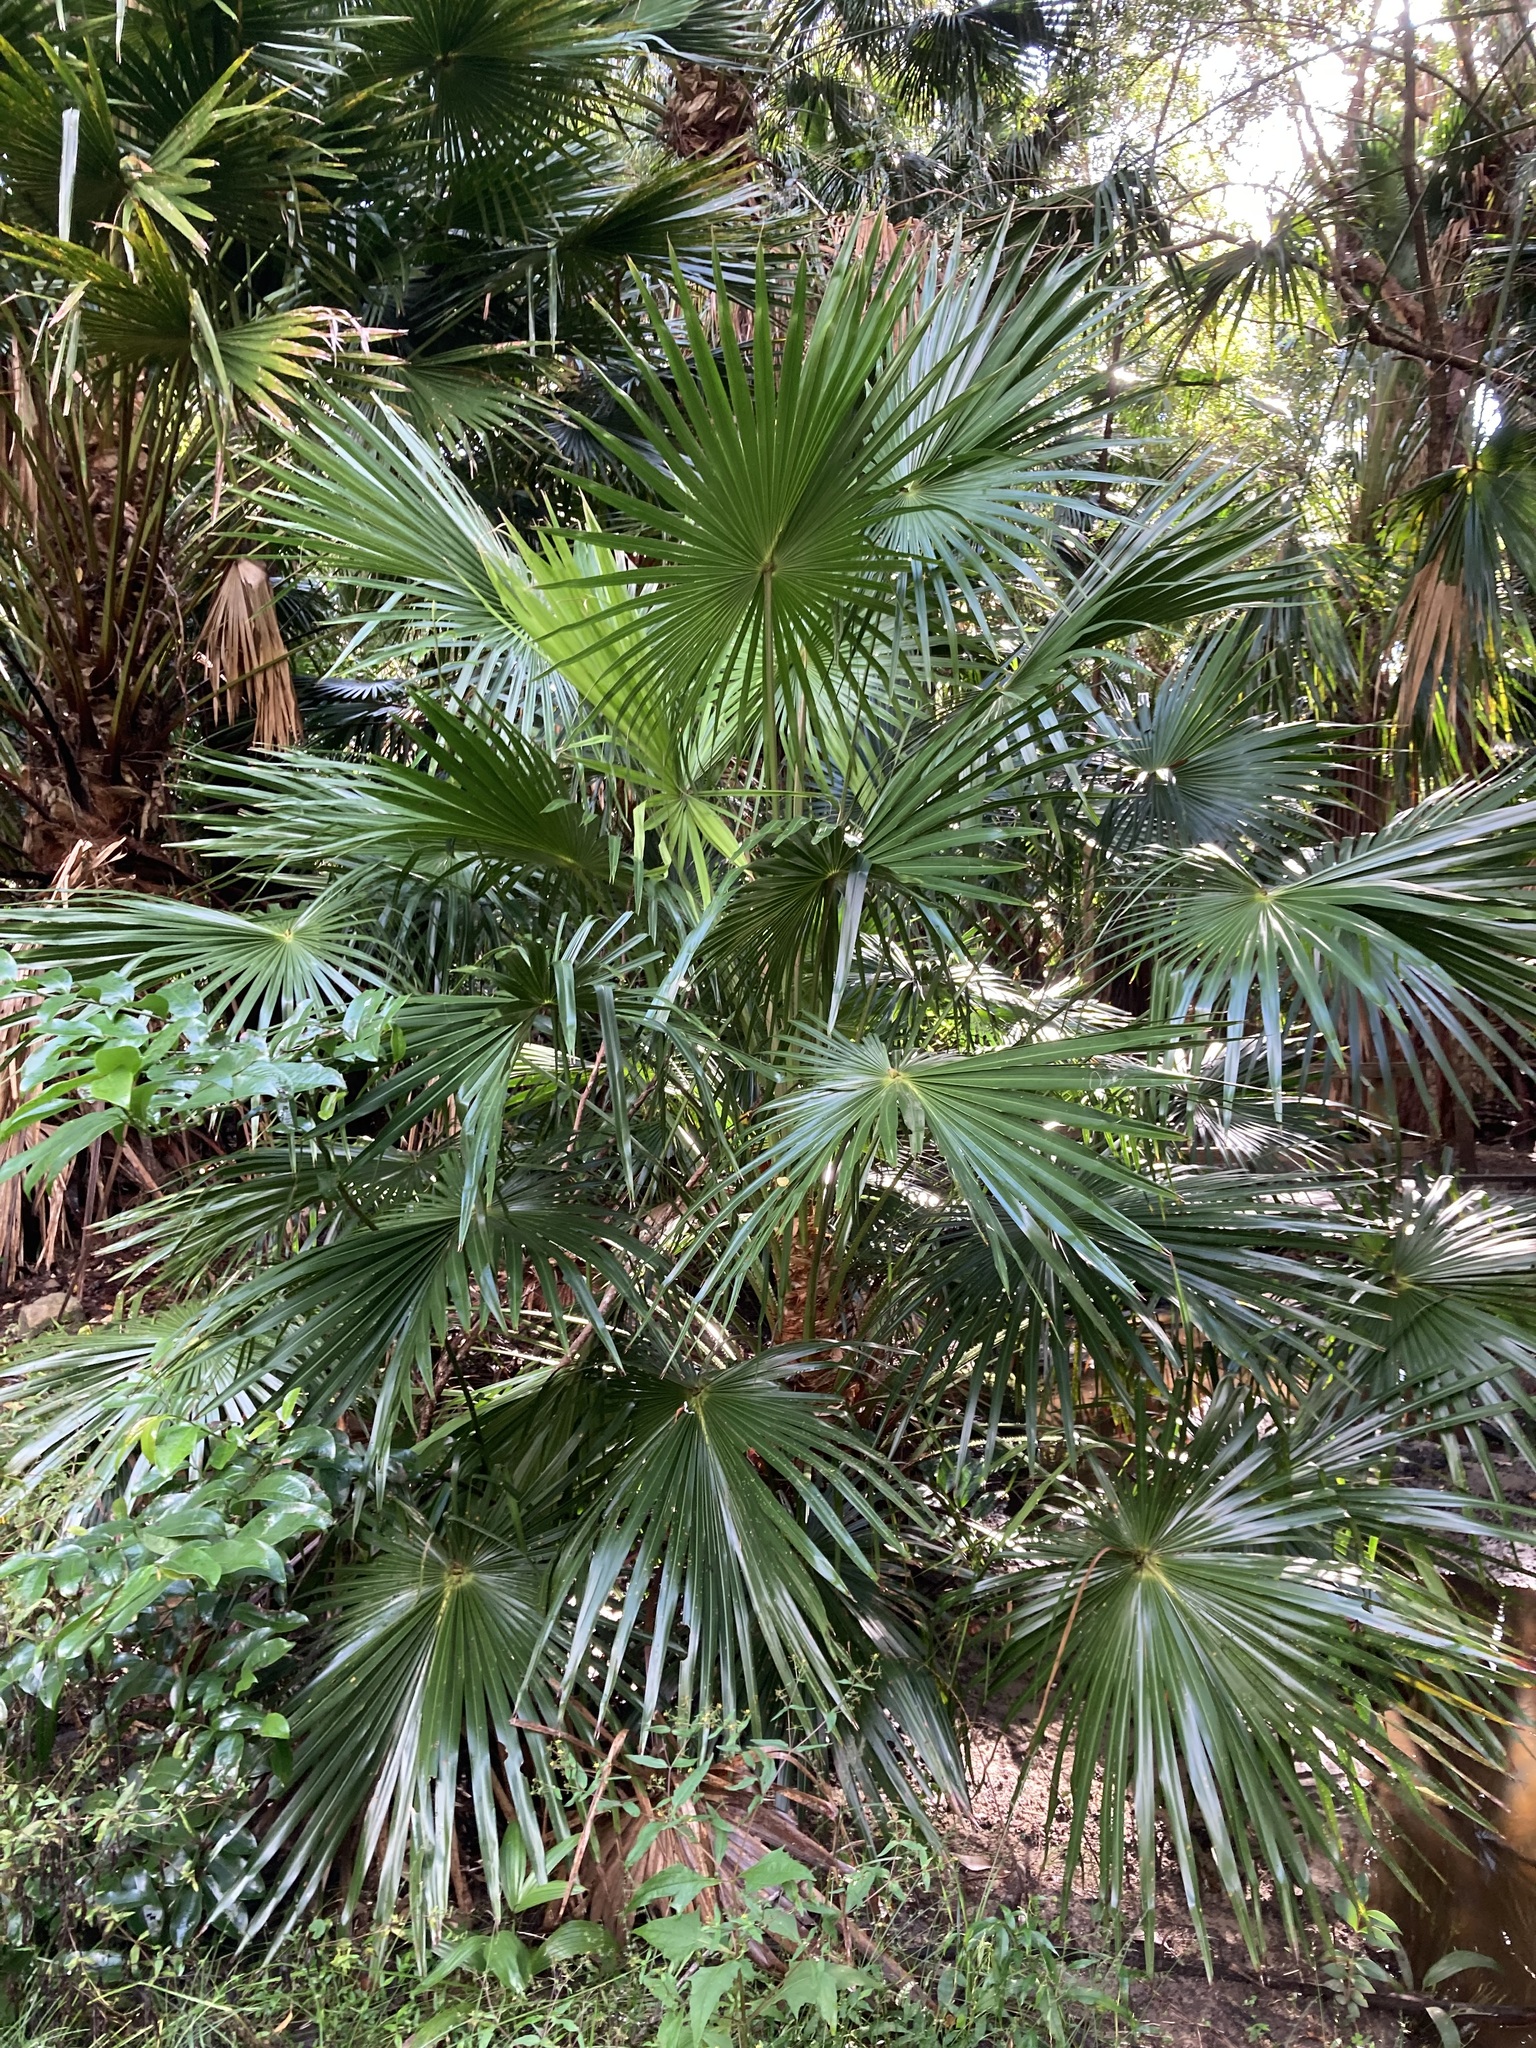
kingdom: Plantae
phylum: Tracheophyta
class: Liliopsida
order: Arecales
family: Arecaceae
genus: Livistona
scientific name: Livistona australis
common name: Cabbage fan palm
